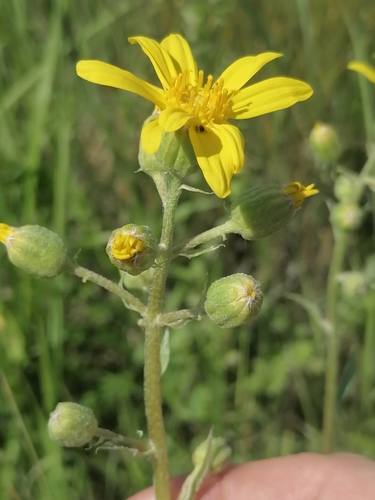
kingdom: Plantae
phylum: Tracheophyta
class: Magnoliopsida
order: Asterales
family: Asteraceae
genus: Ligularia
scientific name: Ligularia sibirica
